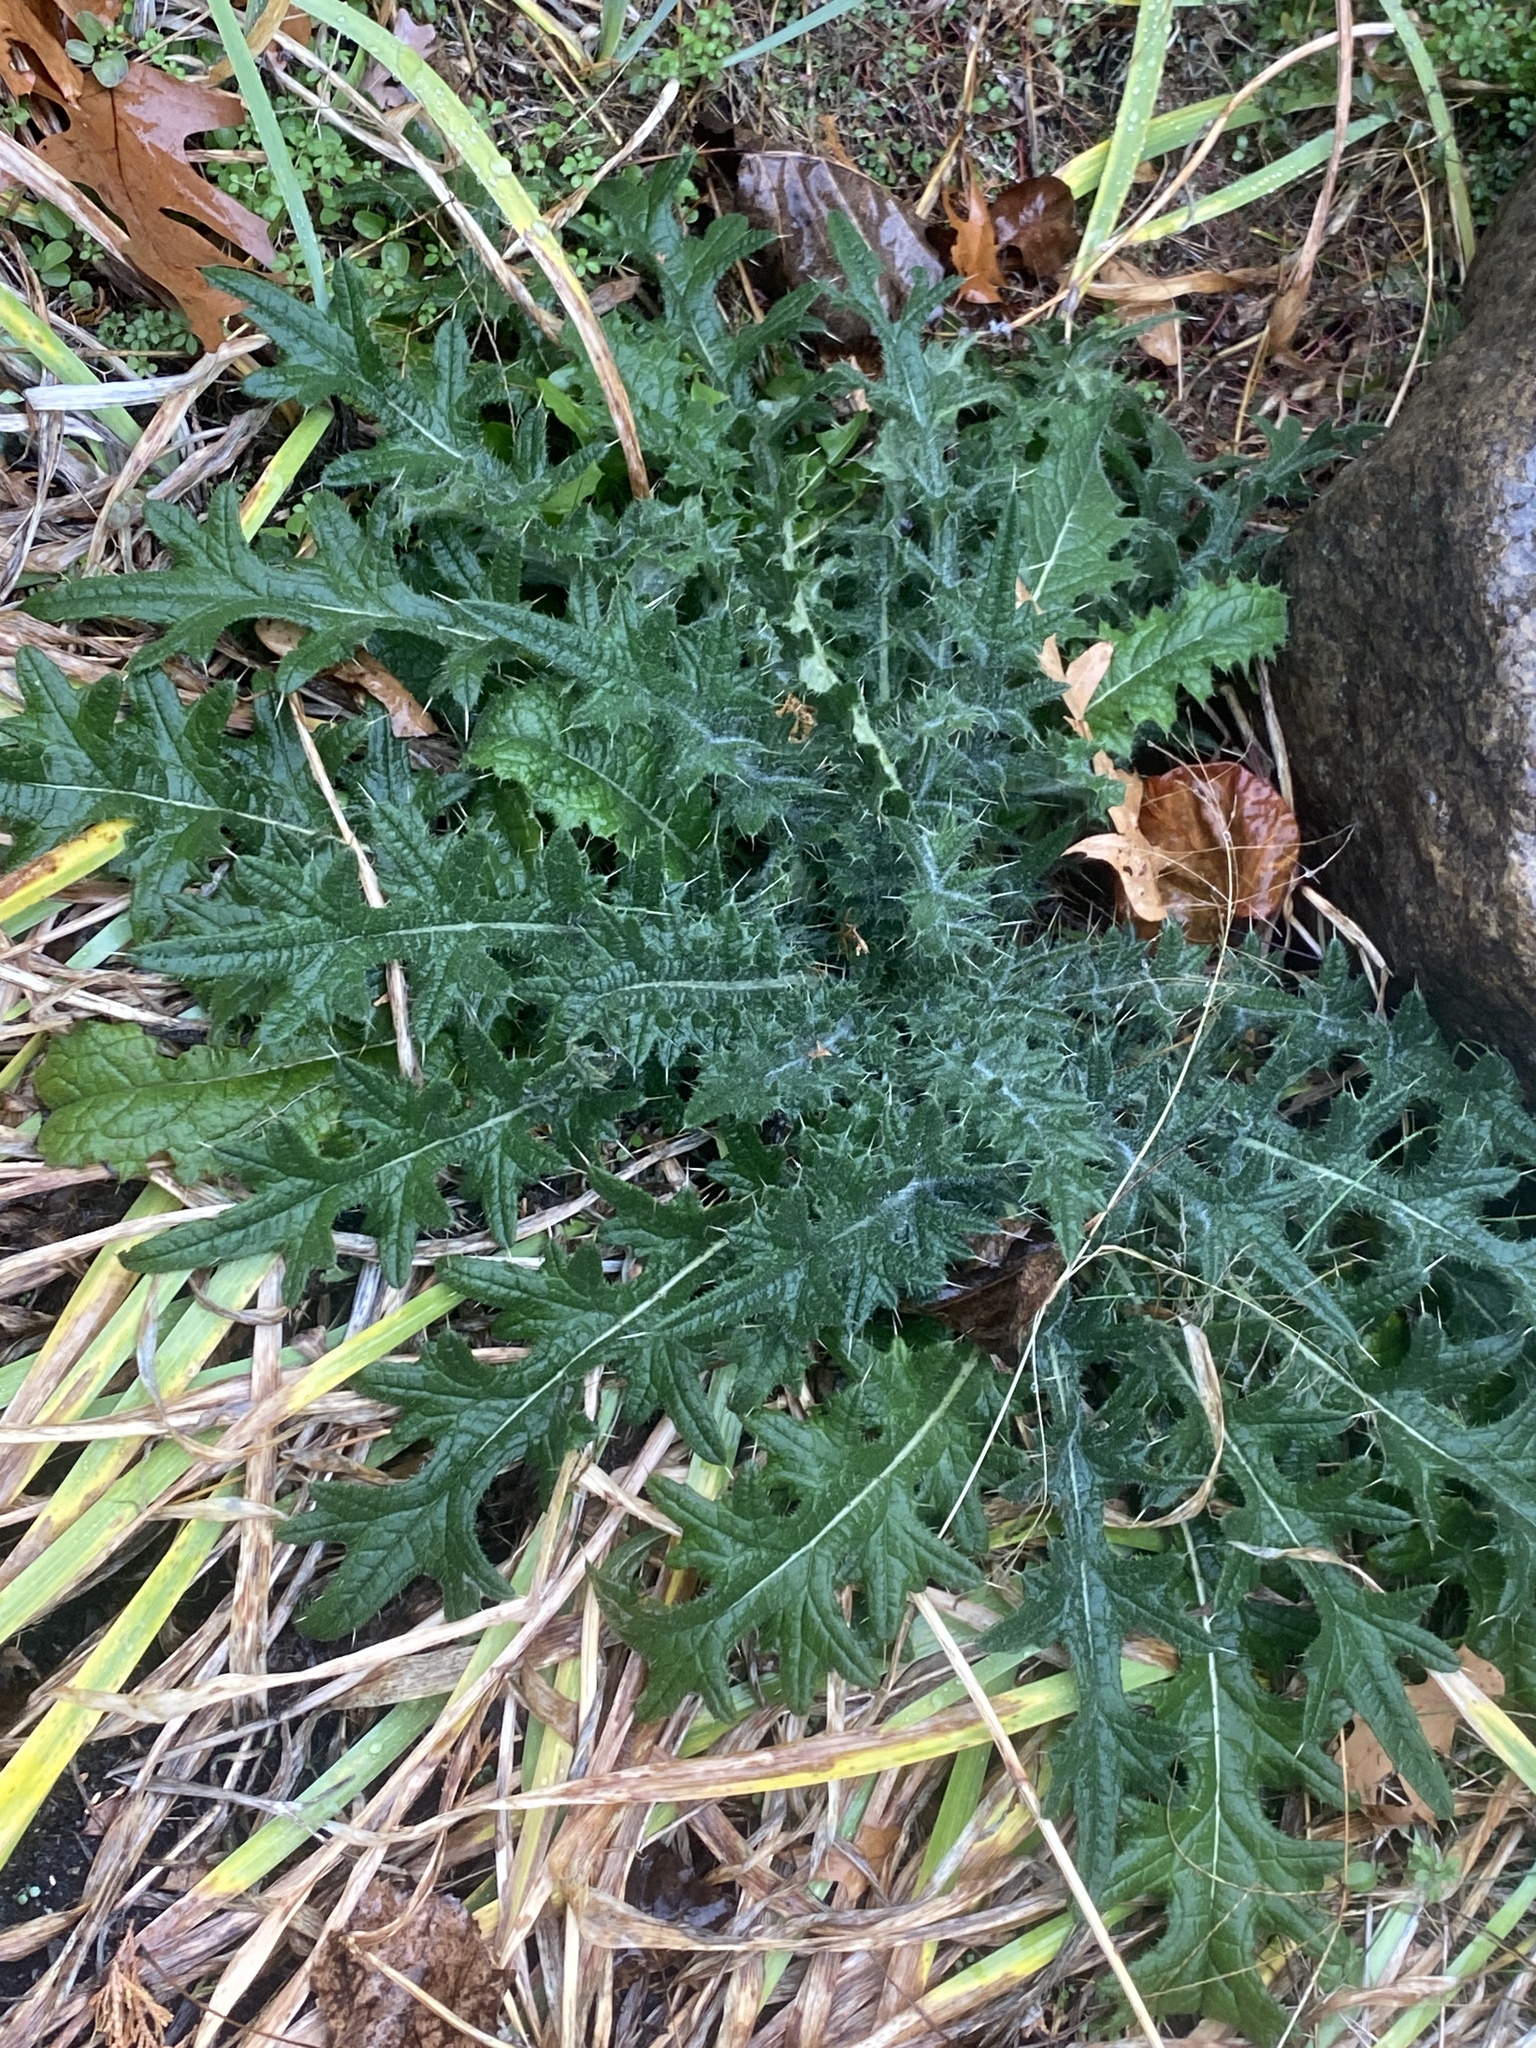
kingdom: Plantae
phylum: Tracheophyta
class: Magnoliopsida
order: Asterales
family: Asteraceae
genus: Cirsium
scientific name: Cirsium vulgare
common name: Bull thistle
